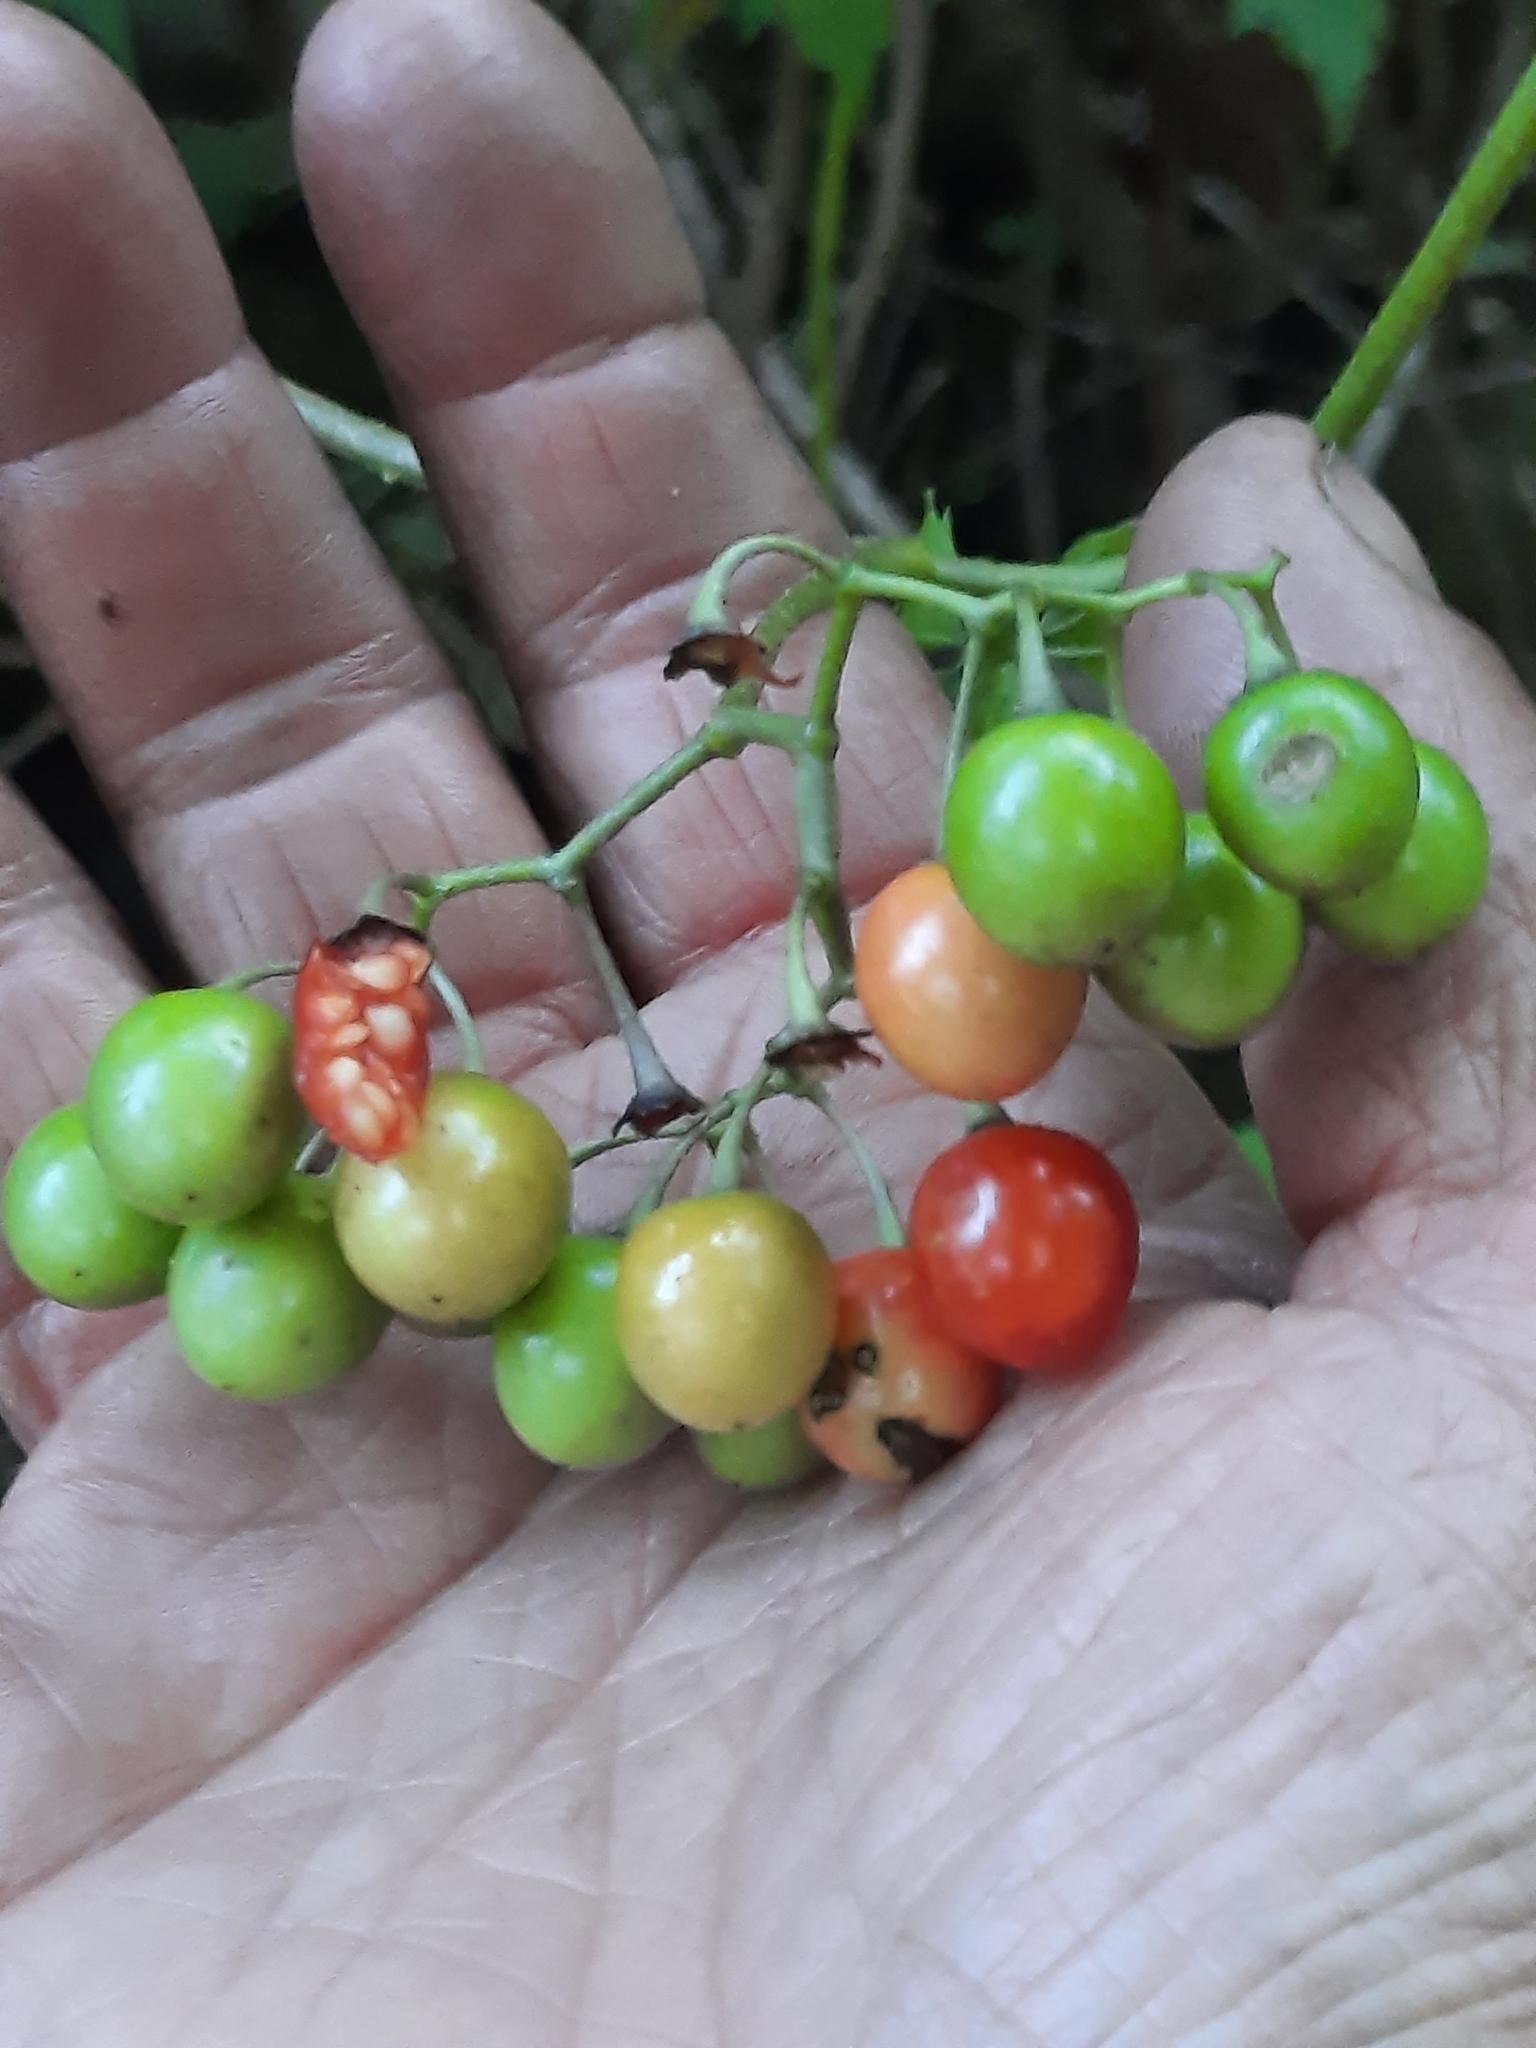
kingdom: Plantae
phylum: Tracheophyta
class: Magnoliopsida
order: Solanales
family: Solanaceae
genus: Solanum
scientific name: Solanum dulcamara
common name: Climbing nightshade
